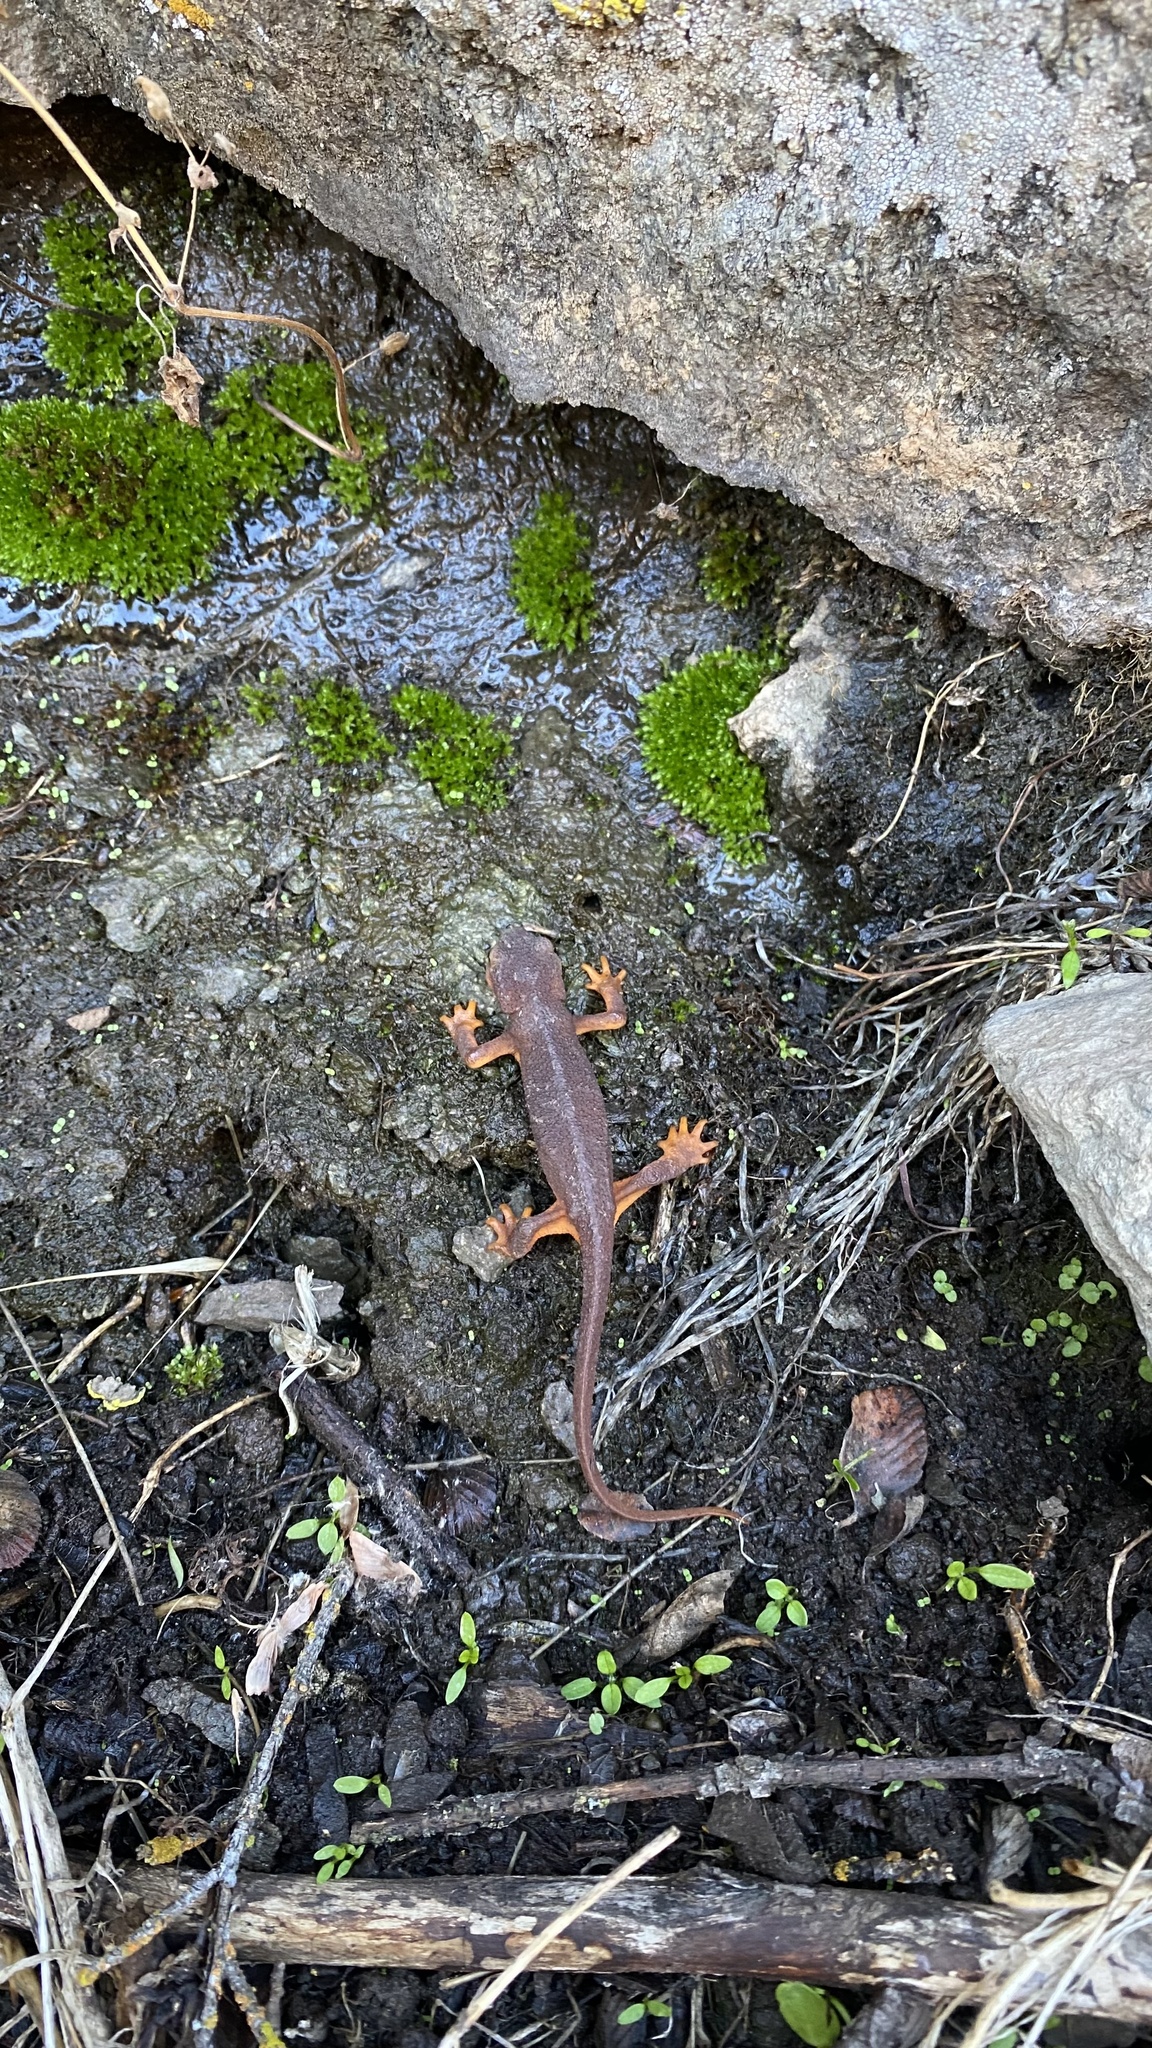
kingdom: Animalia
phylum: Chordata
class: Amphibia
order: Caudata
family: Salamandridae
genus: Taricha
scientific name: Taricha torosa
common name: California newt
